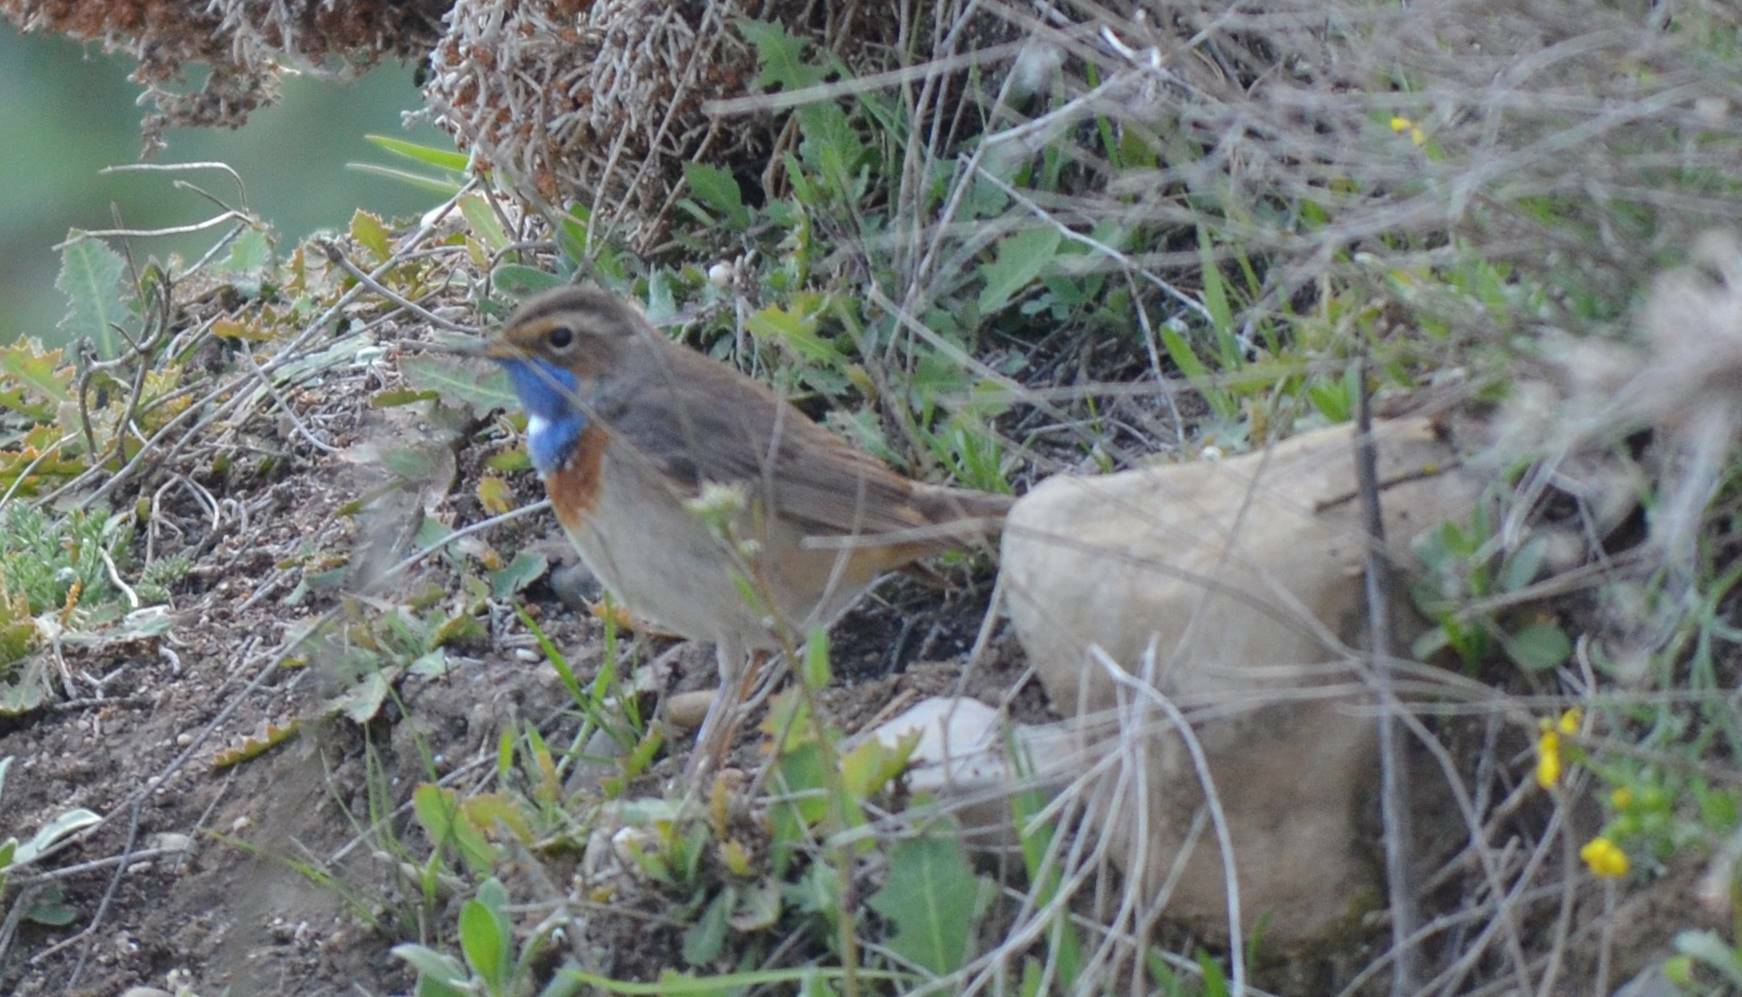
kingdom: Animalia
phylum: Chordata
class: Aves
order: Passeriformes
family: Muscicapidae
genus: Luscinia
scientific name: Luscinia svecica
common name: Bluethroat
